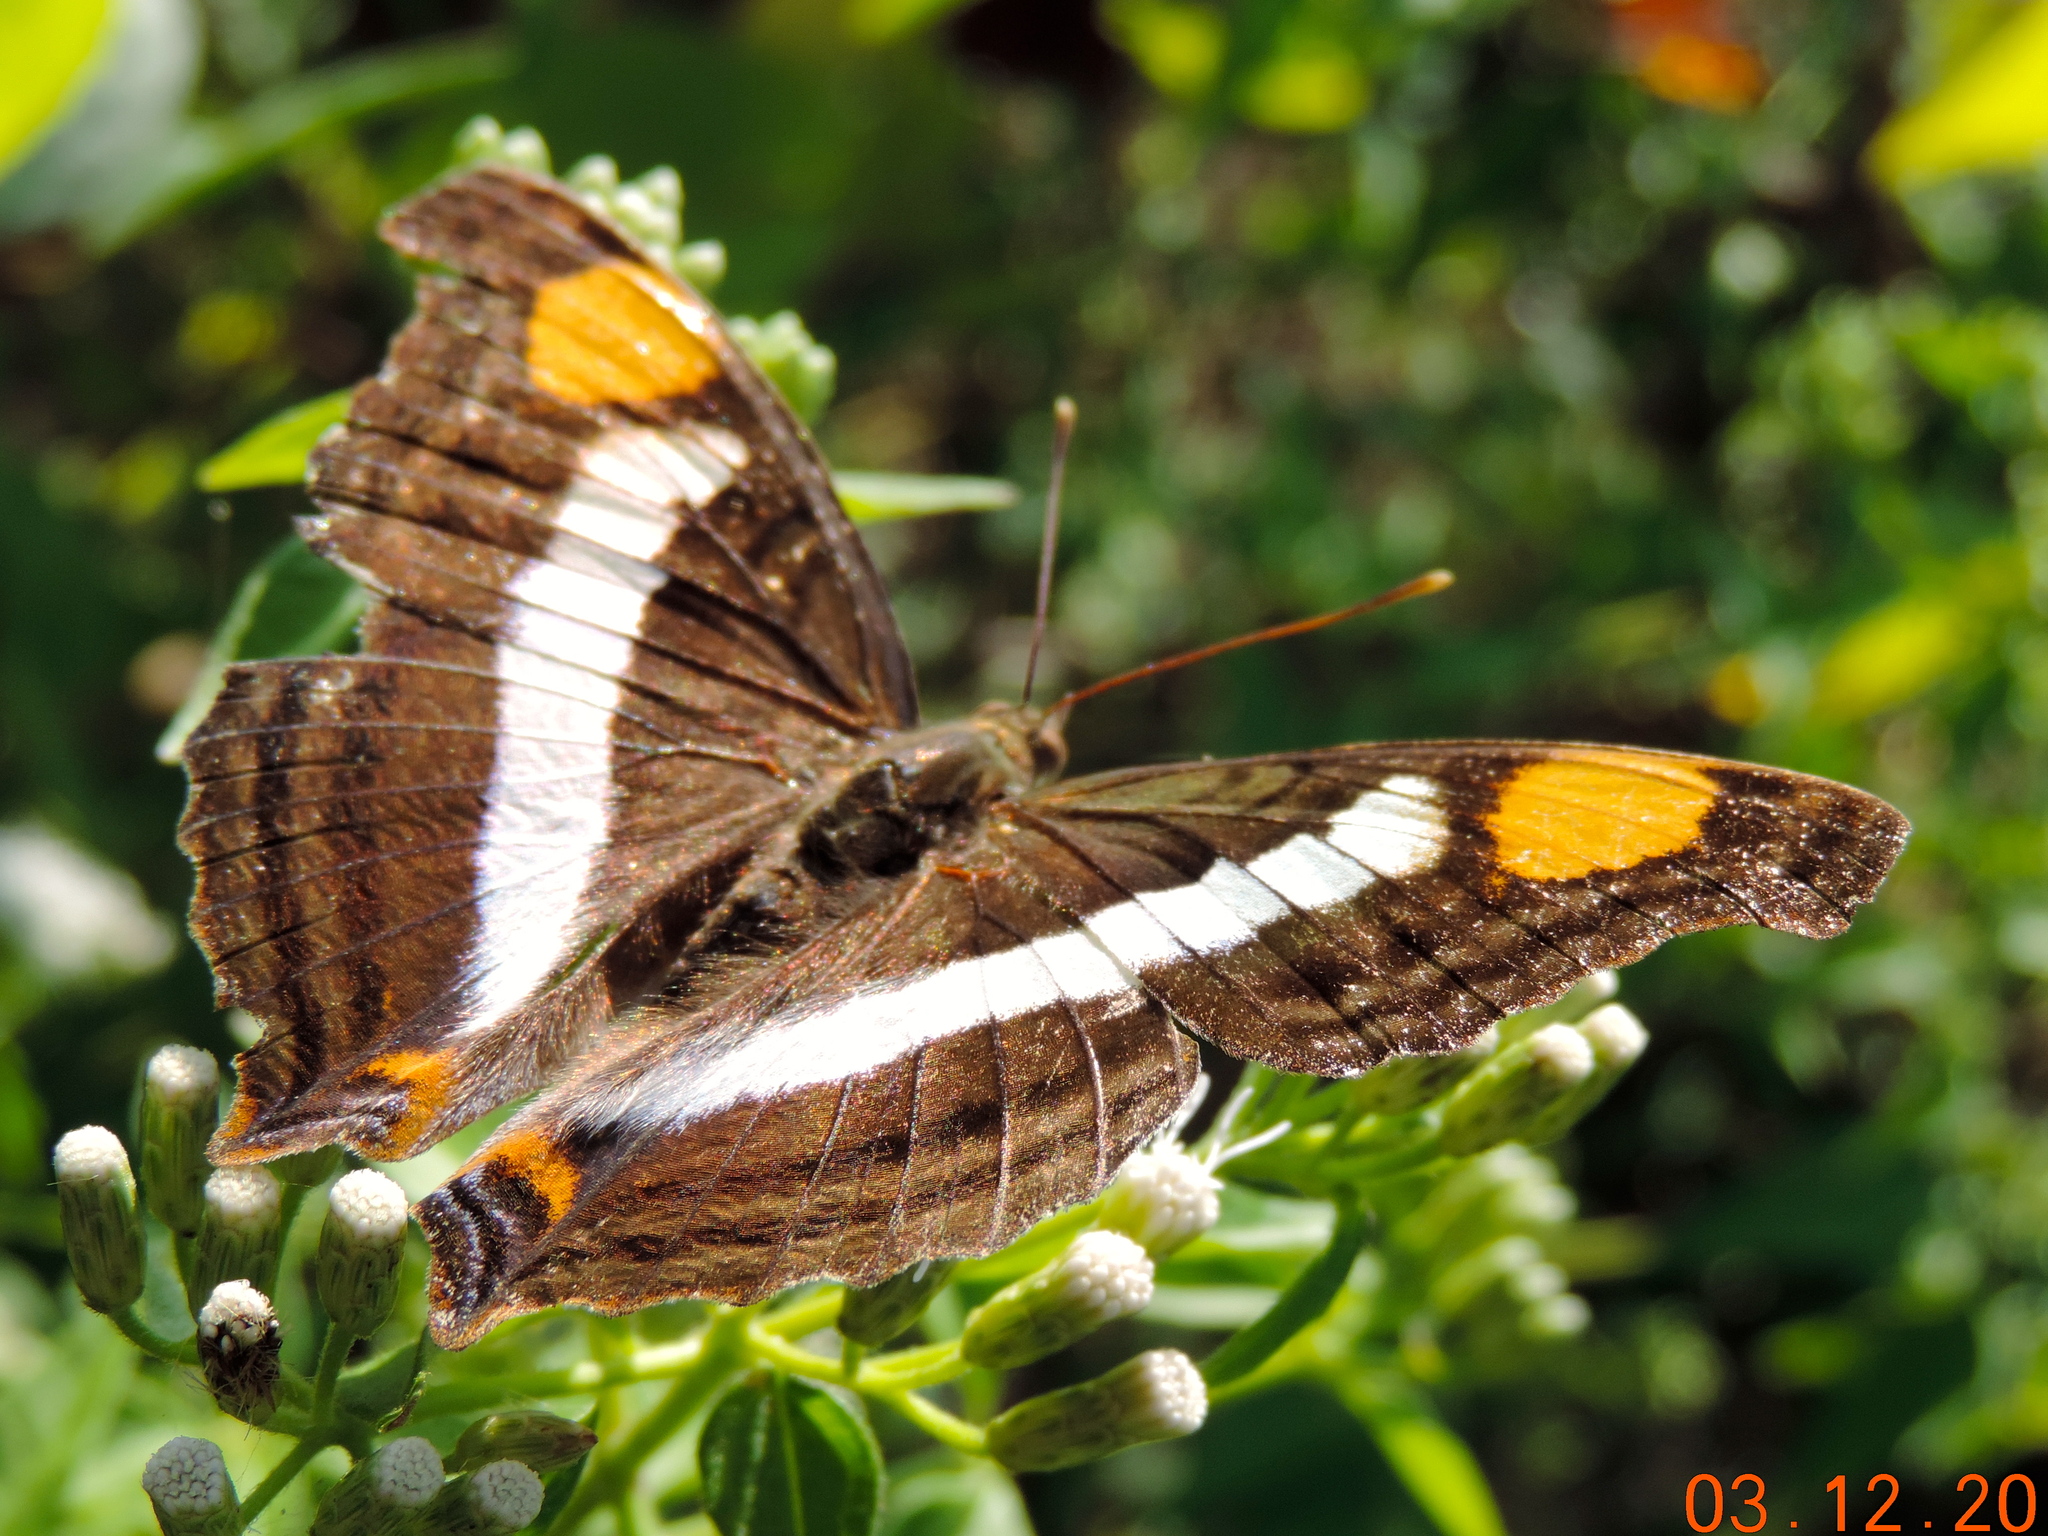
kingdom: Animalia
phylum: Arthropoda
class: Insecta
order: Lepidoptera
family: Nymphalidae
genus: Doxocopa
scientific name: Doxocopa laure
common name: Silver emperor
